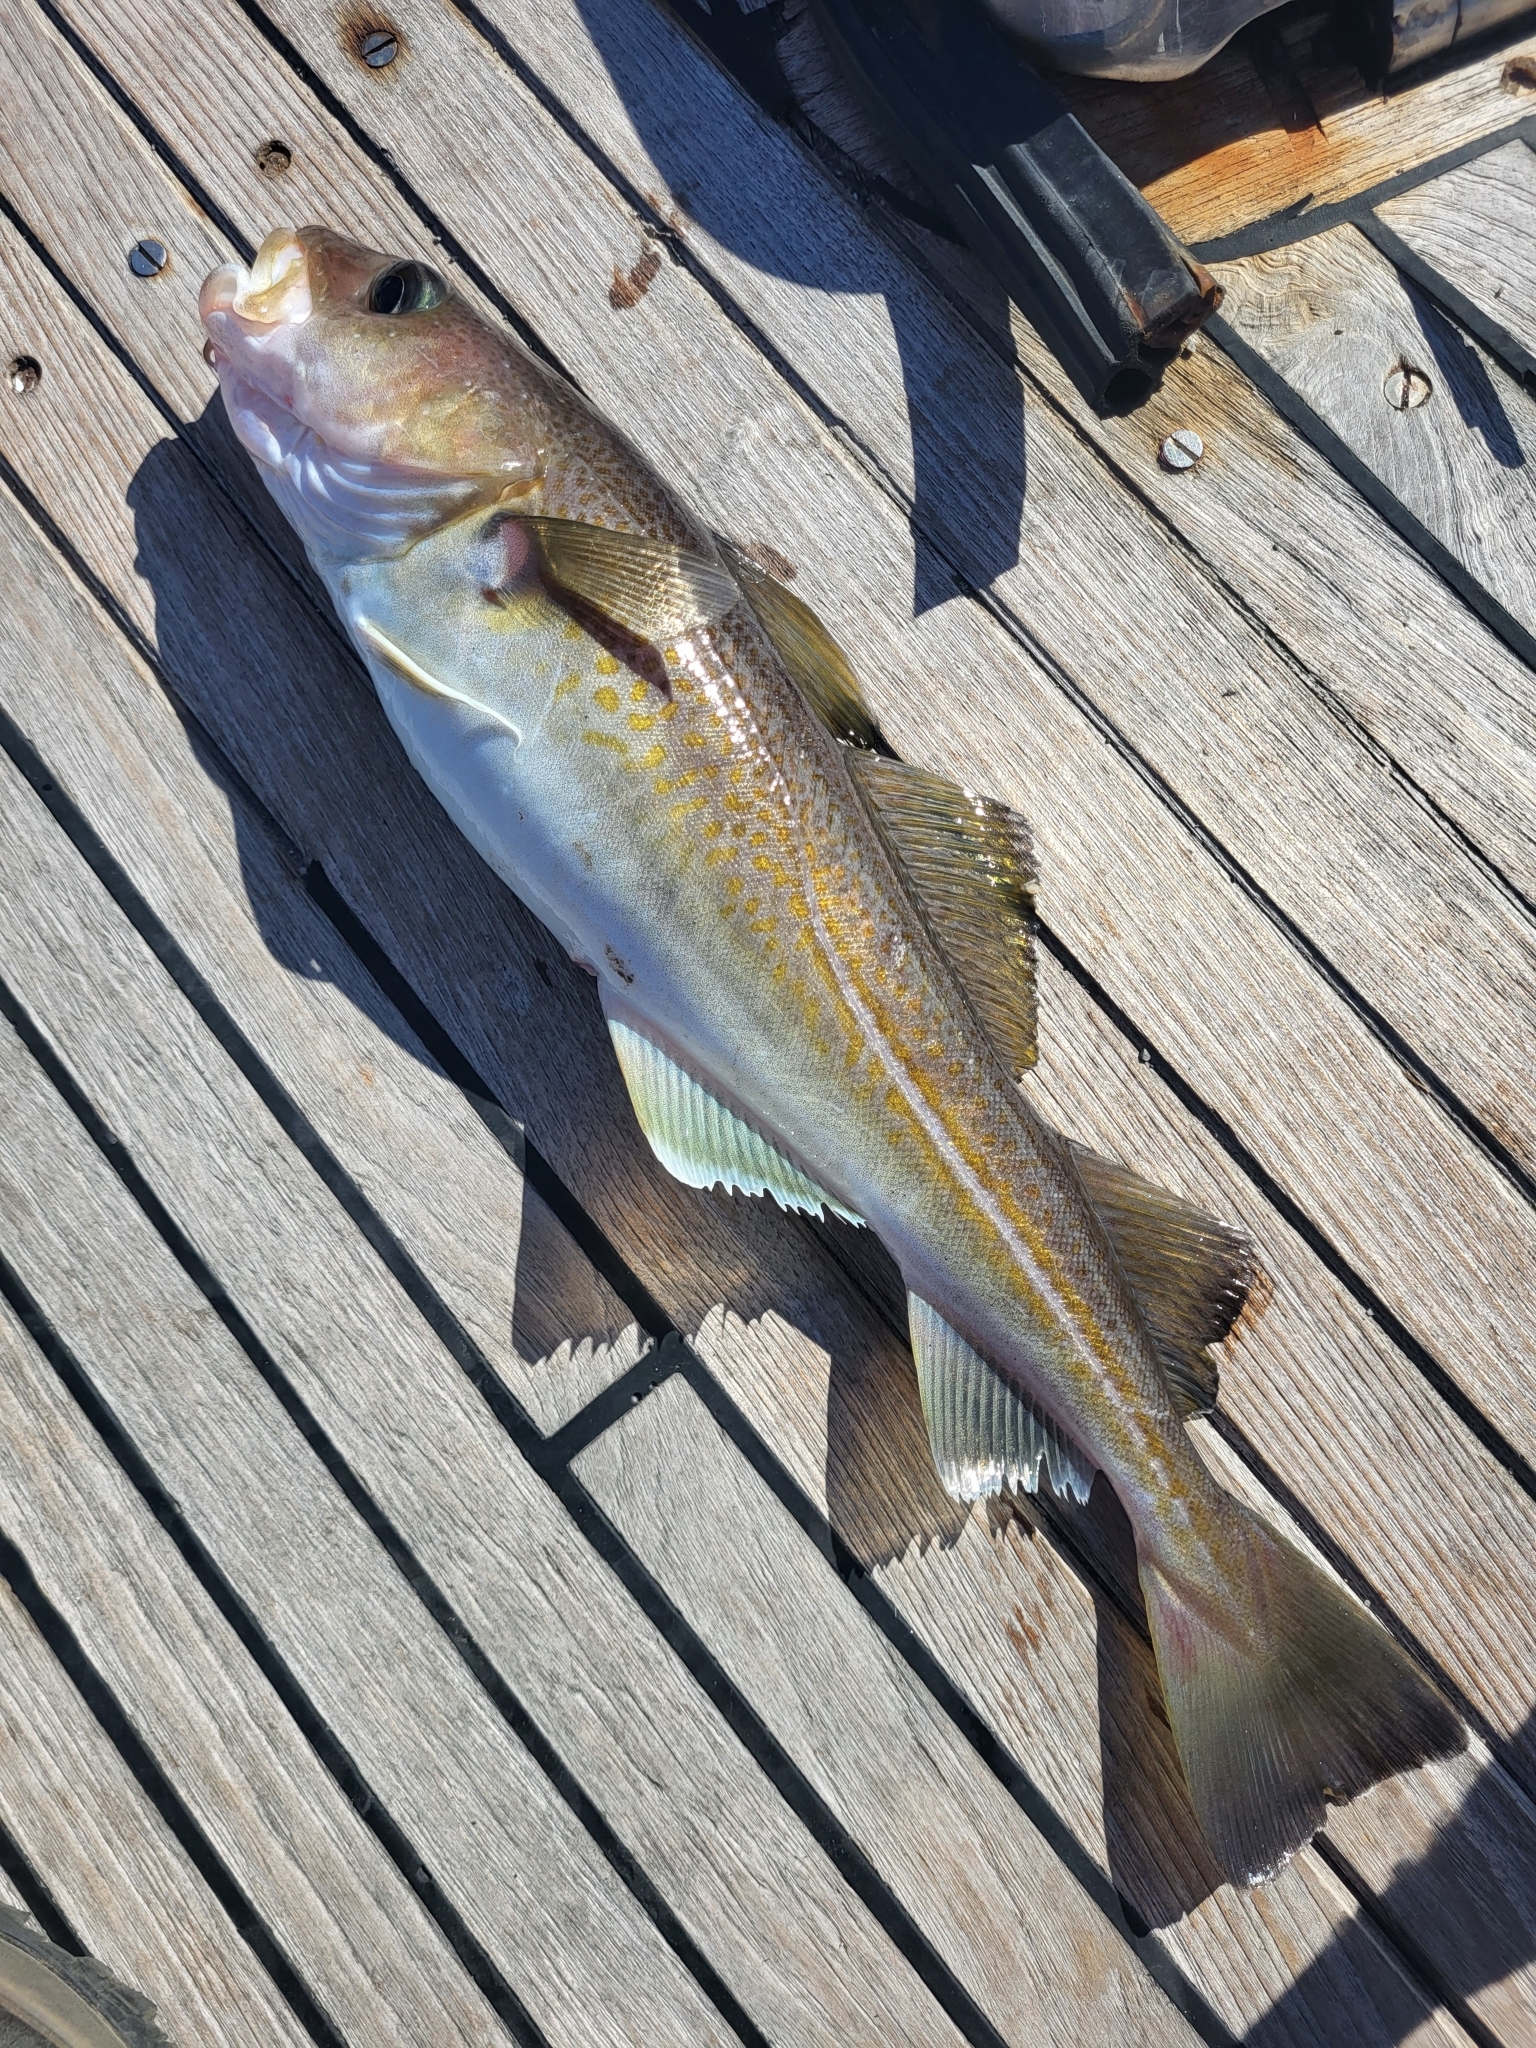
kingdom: Animalia
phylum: Chordata
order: Gadiformes
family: Gadidae
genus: Gadus
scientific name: Gadus morhua
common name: Atlantic cod
